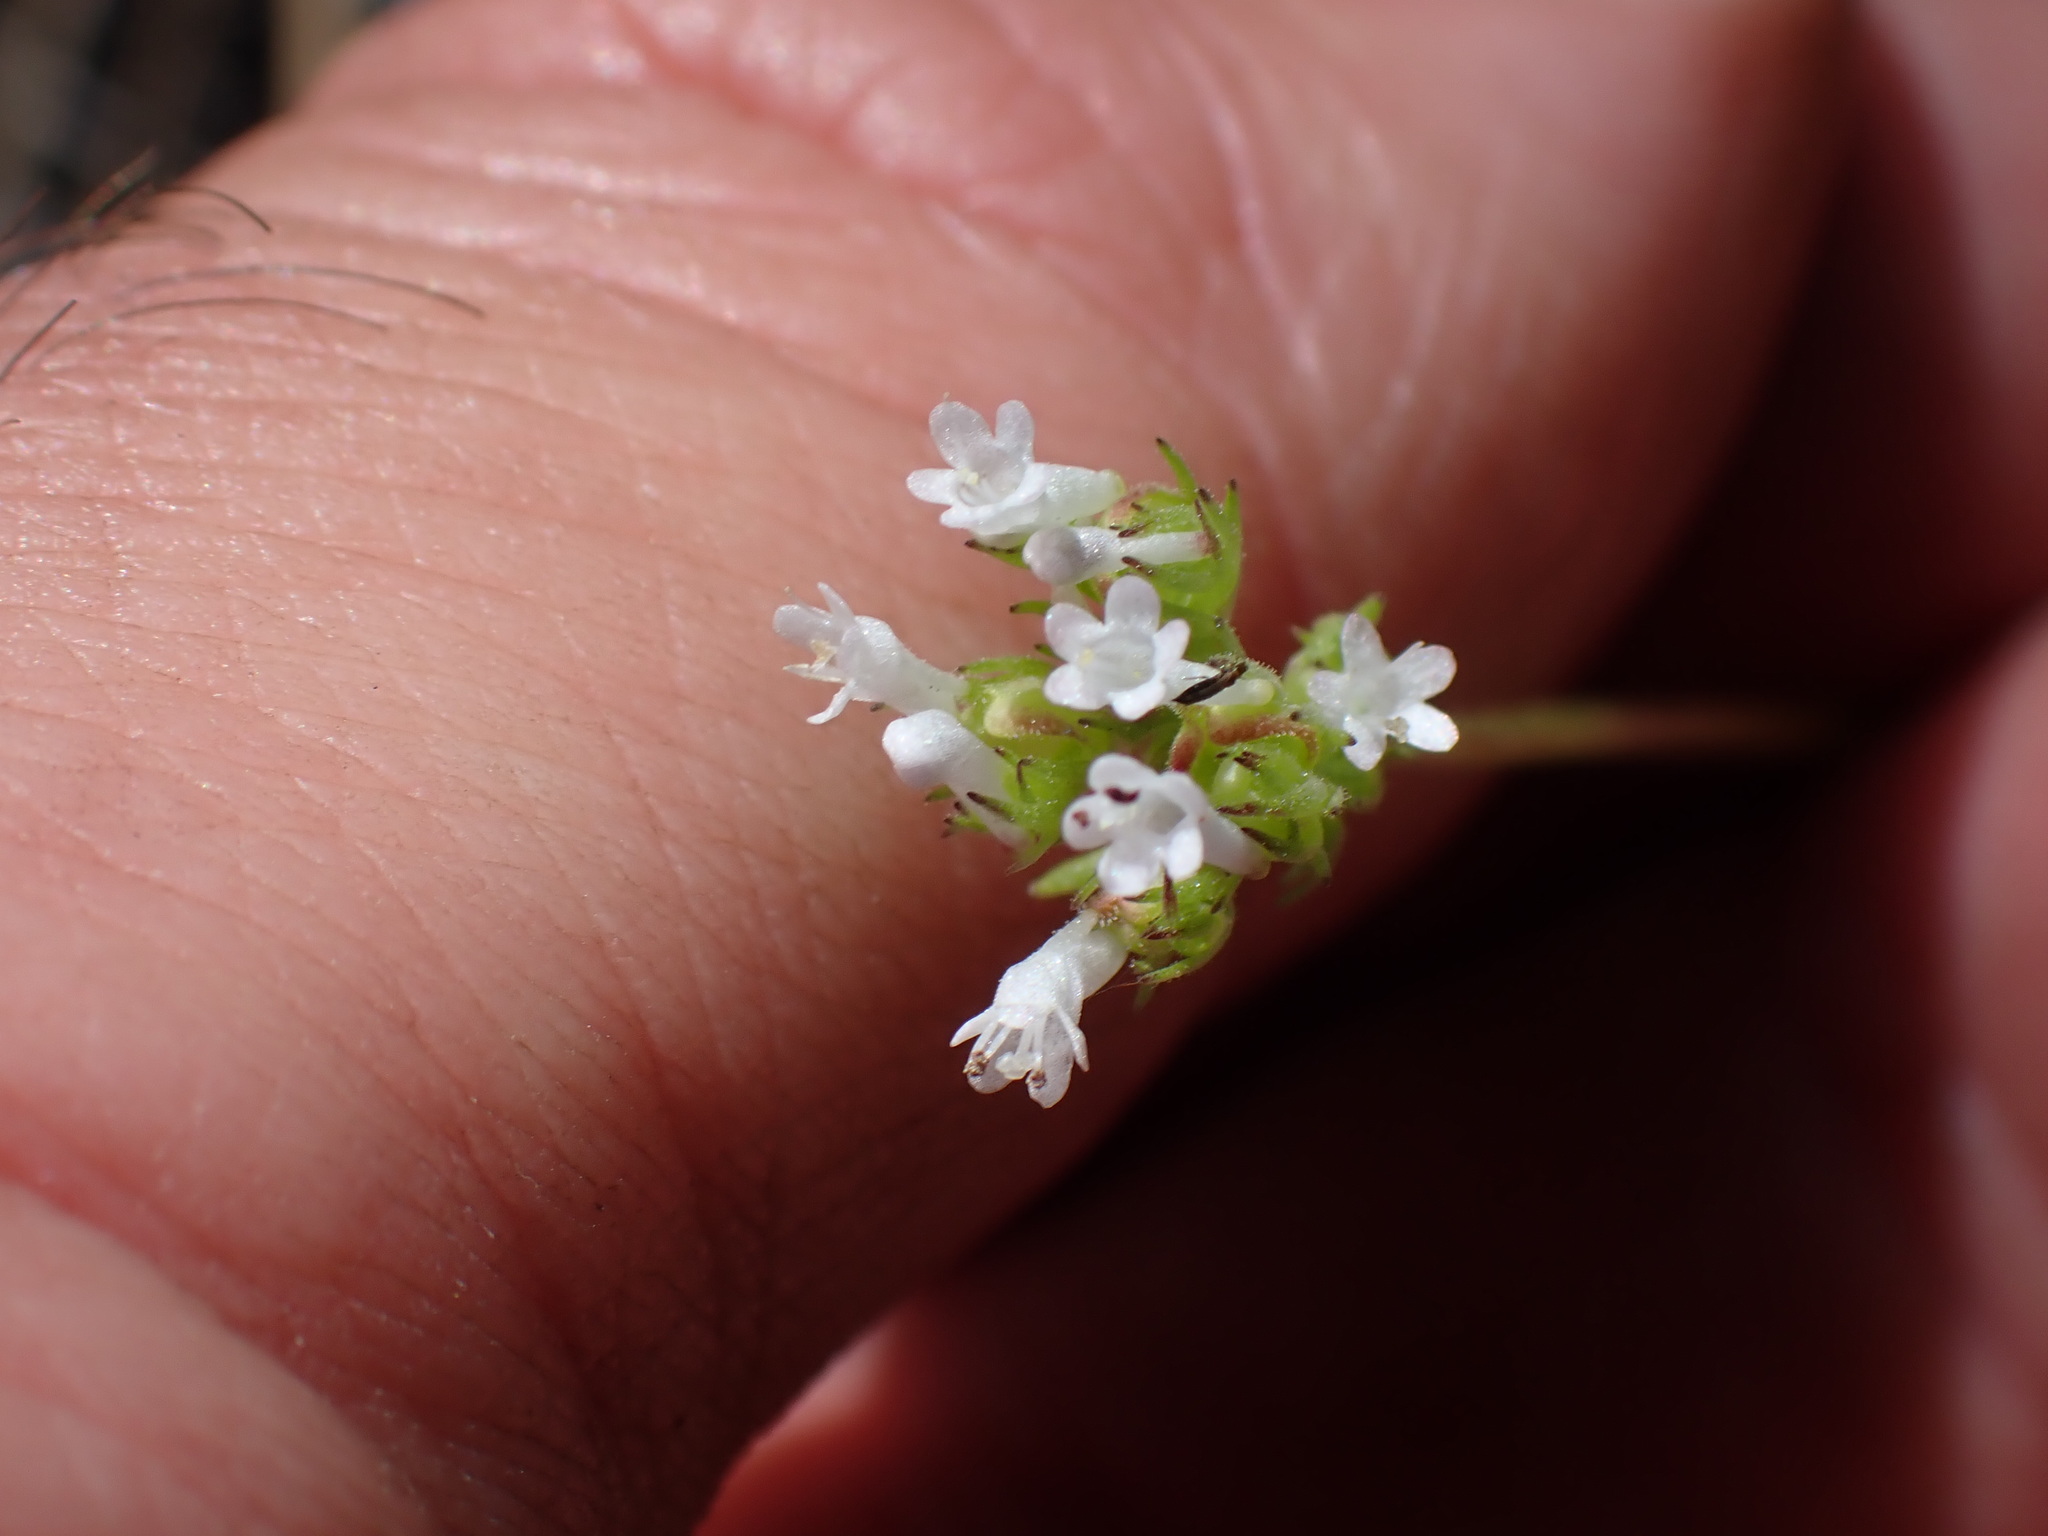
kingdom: Plantae
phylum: Tracheophyta
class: Magnoliopsida
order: Dipsacales
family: Caprifoliaceae
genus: Plectritis
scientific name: Plectritis macroptera
